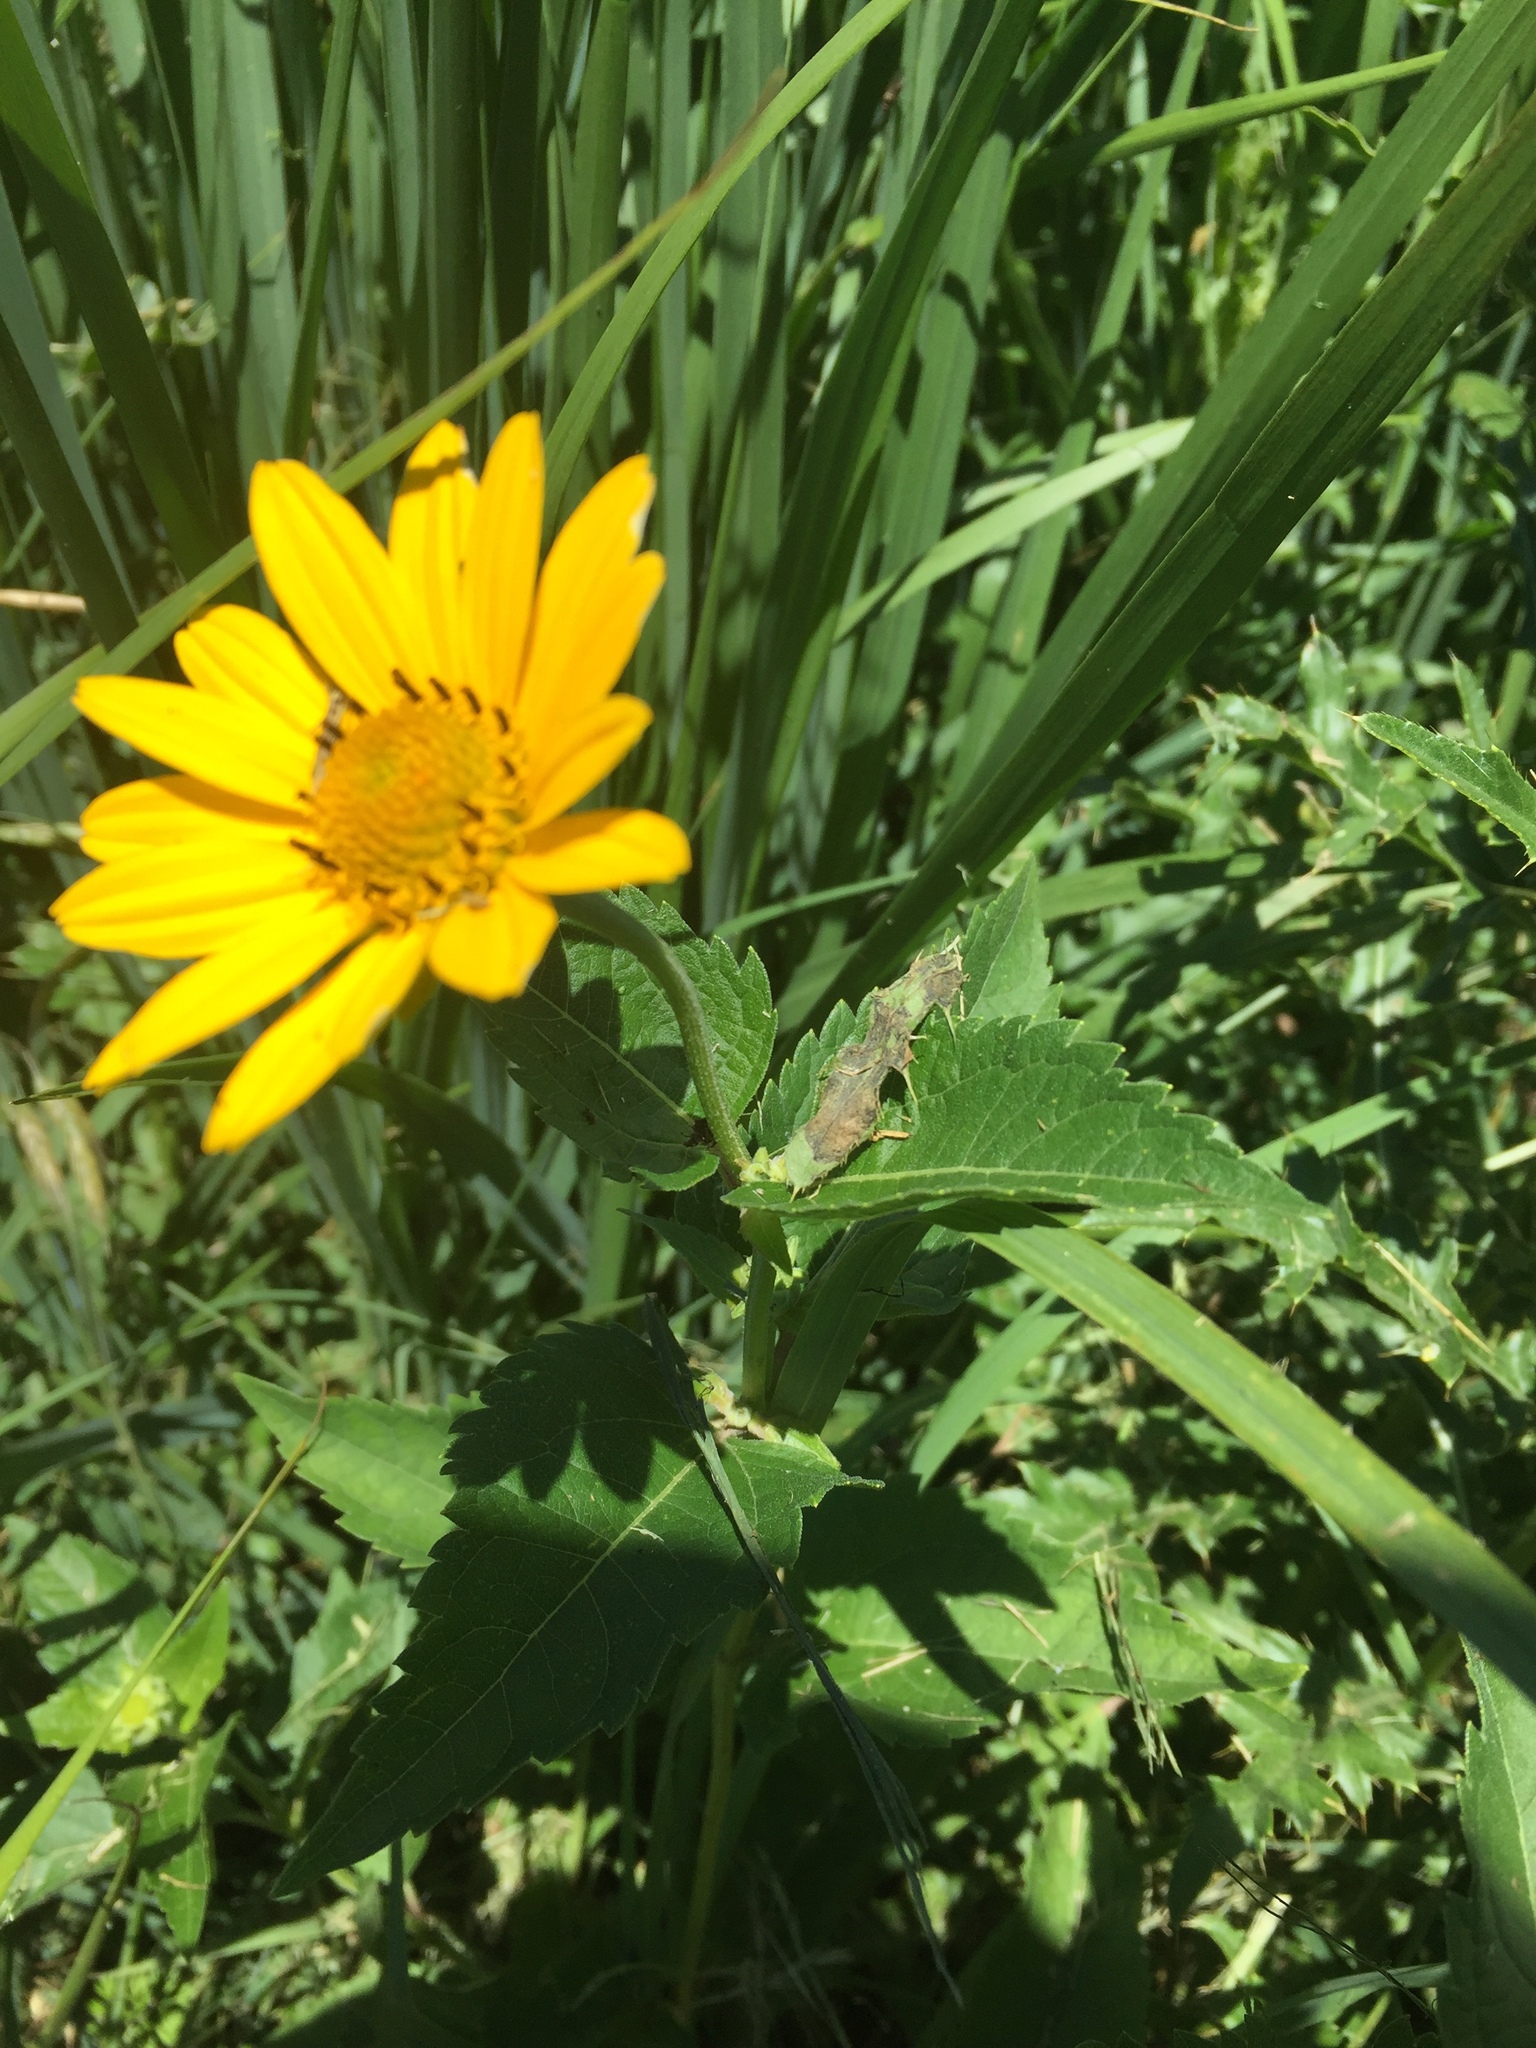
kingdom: Plantae
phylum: Tracheophyta
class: Magnoliopsida
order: Asterales
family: Asteraceae
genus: Heliopsis
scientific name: Heliopsis helianthoides
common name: False sunflower
